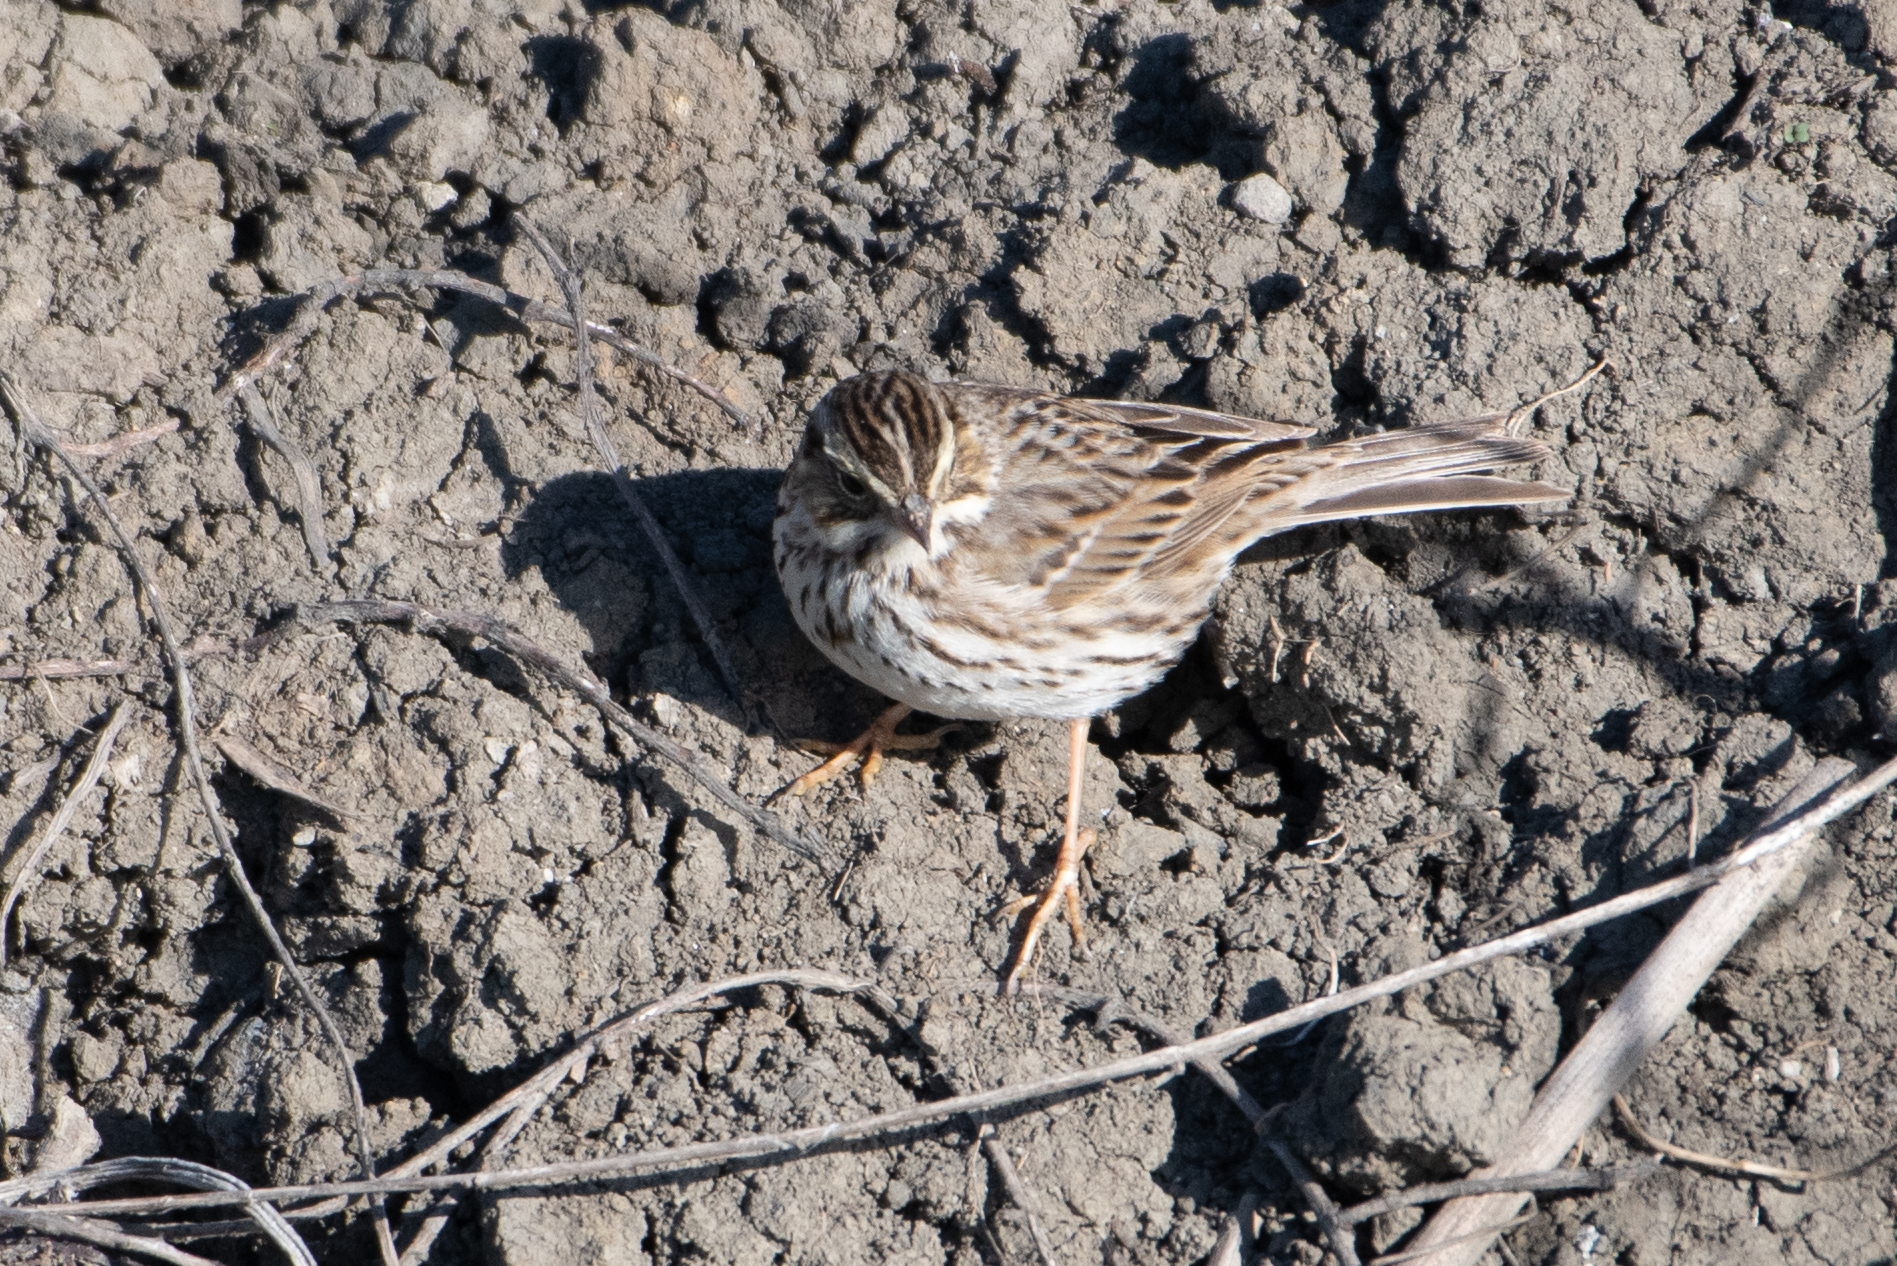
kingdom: Animalia
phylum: Chordata
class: Aves
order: Passeriformes
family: Passerellidae
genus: Passerculus
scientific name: Passerculus sandwichensis
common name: Savannah sparrow
